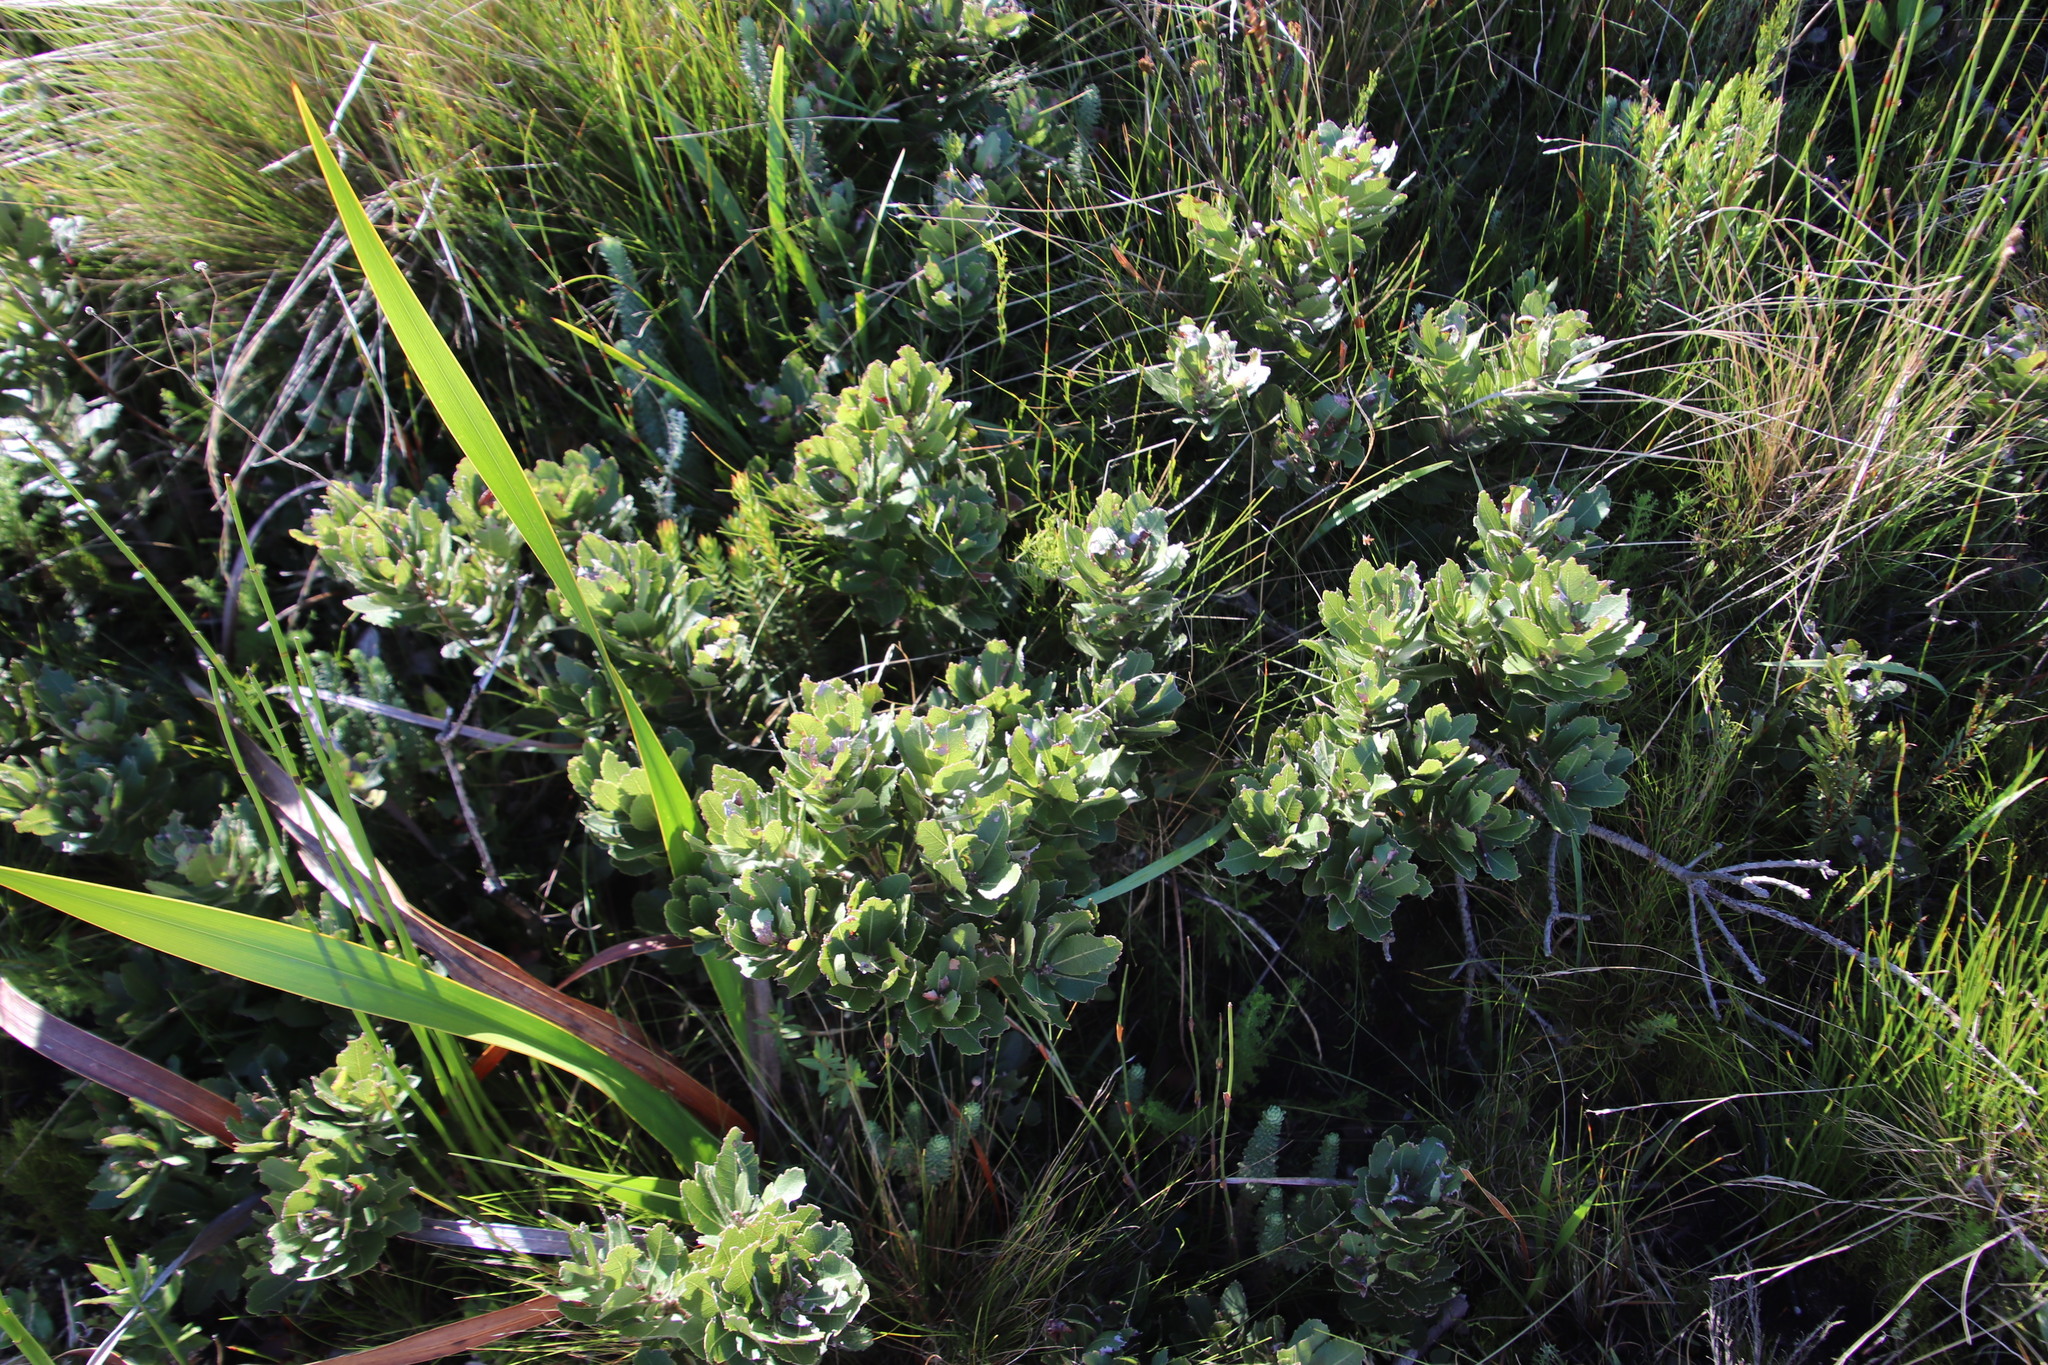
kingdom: Plantae
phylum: Tracheophyta
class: Magnoliopsida
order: Fagales
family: Myricaceae
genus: Morella
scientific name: Morella humilis
